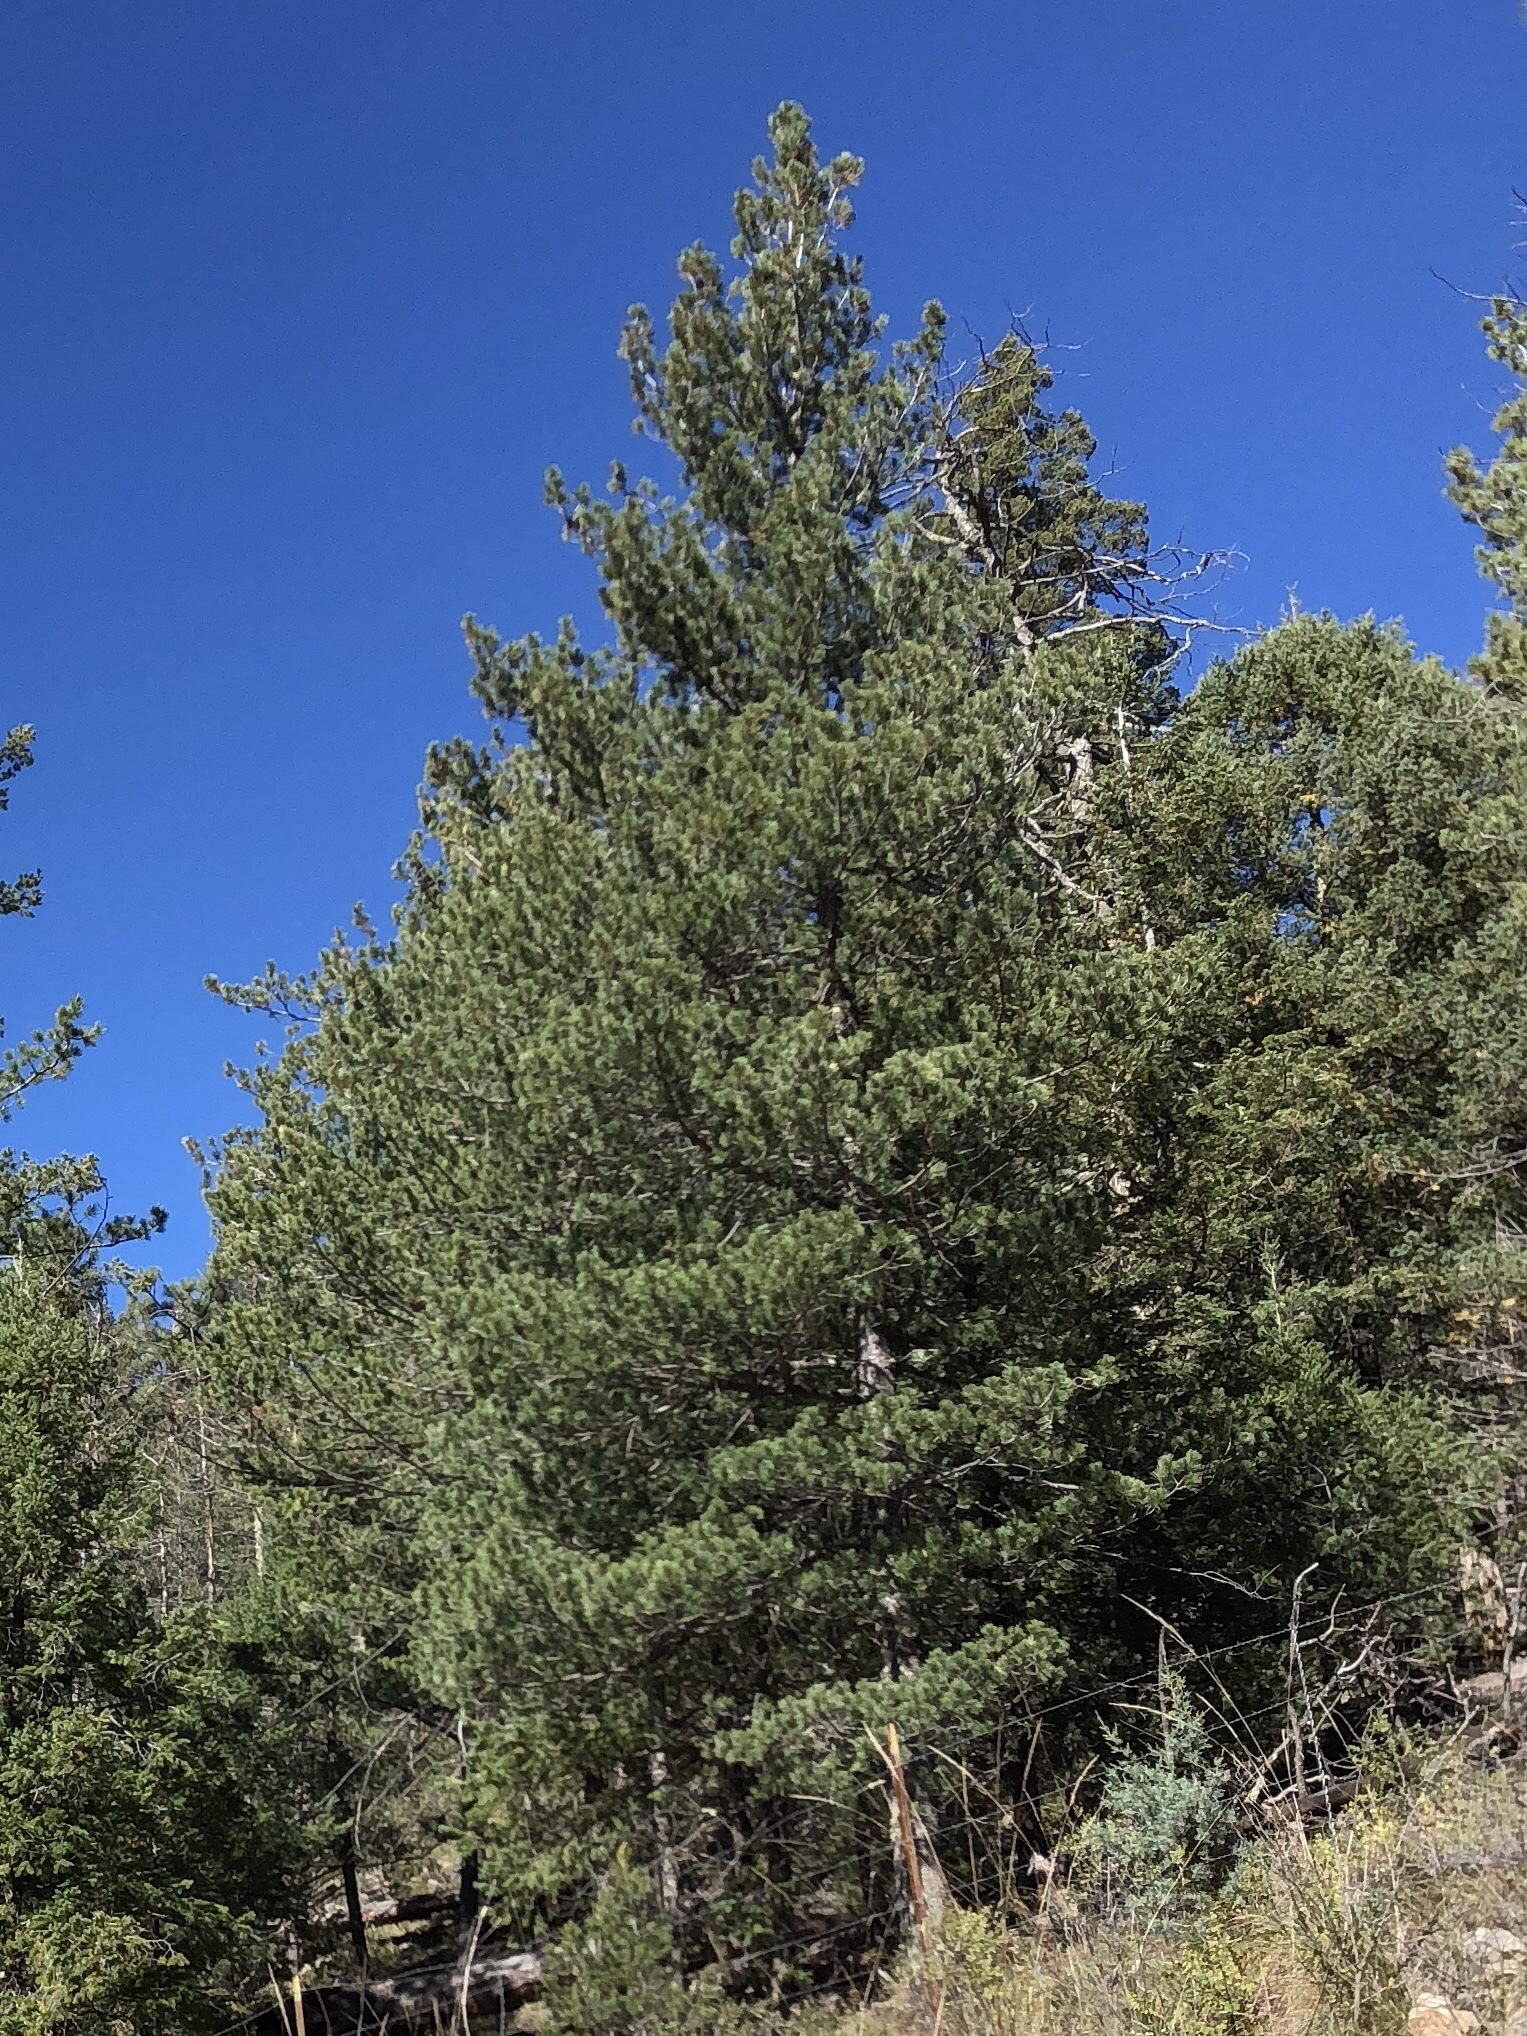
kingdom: Plantae
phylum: Tracheophyta
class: Pinopsida
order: Pinales
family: Pinaceae
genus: Pinus
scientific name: Pinus ponderosa
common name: Western yellow-pine
